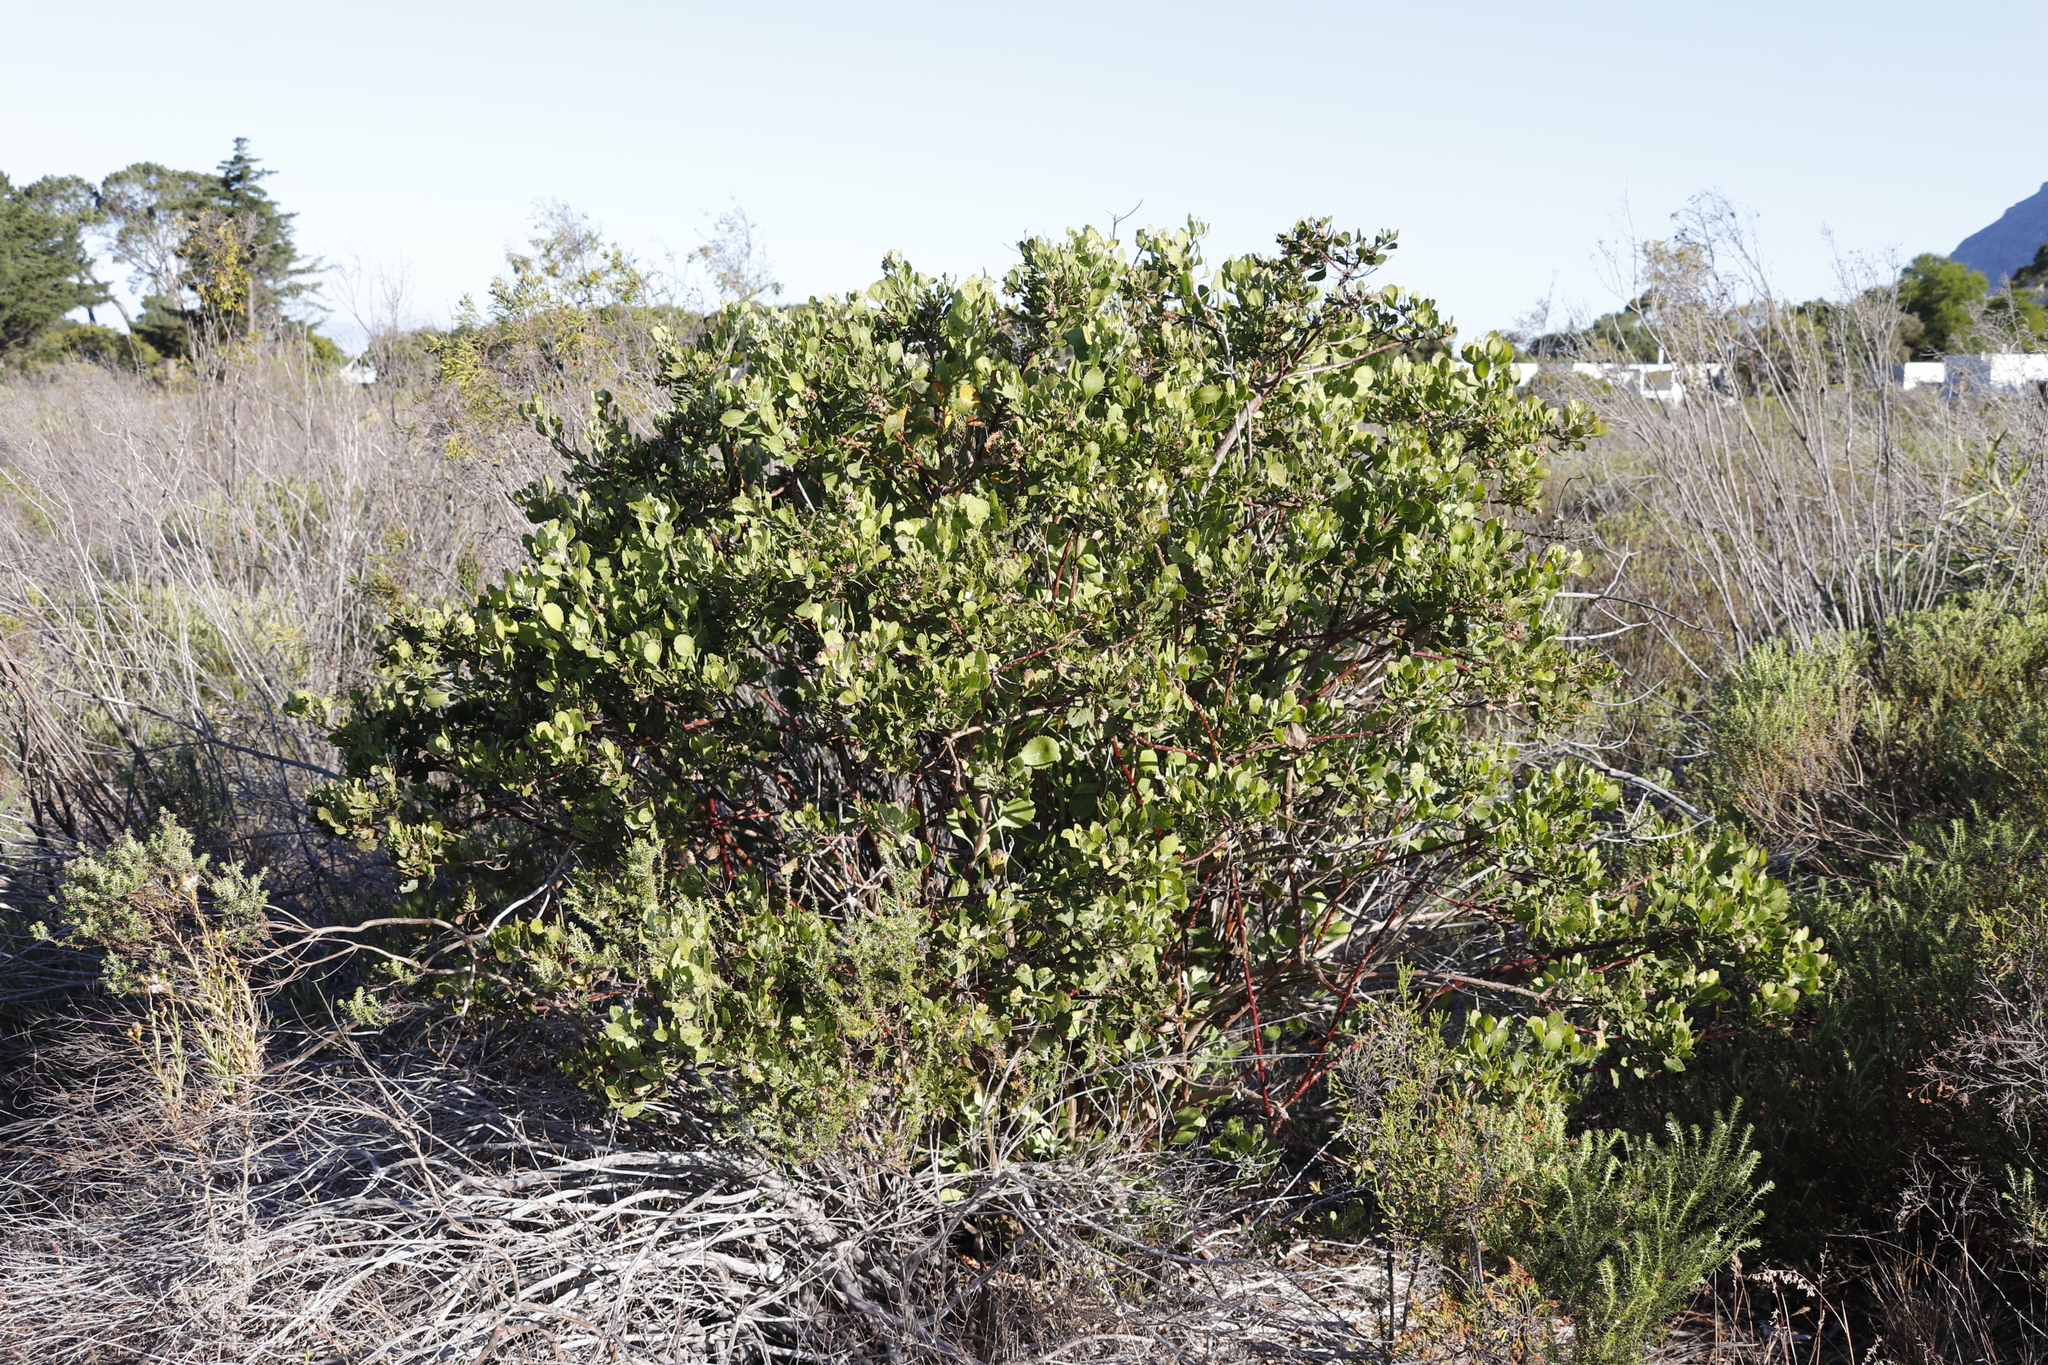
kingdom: Plantae
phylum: Tracheophyta
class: Magnoliopsida
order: Asterales
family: Asteraceae
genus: Osteospermum
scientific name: Osteospermum moniliferum
